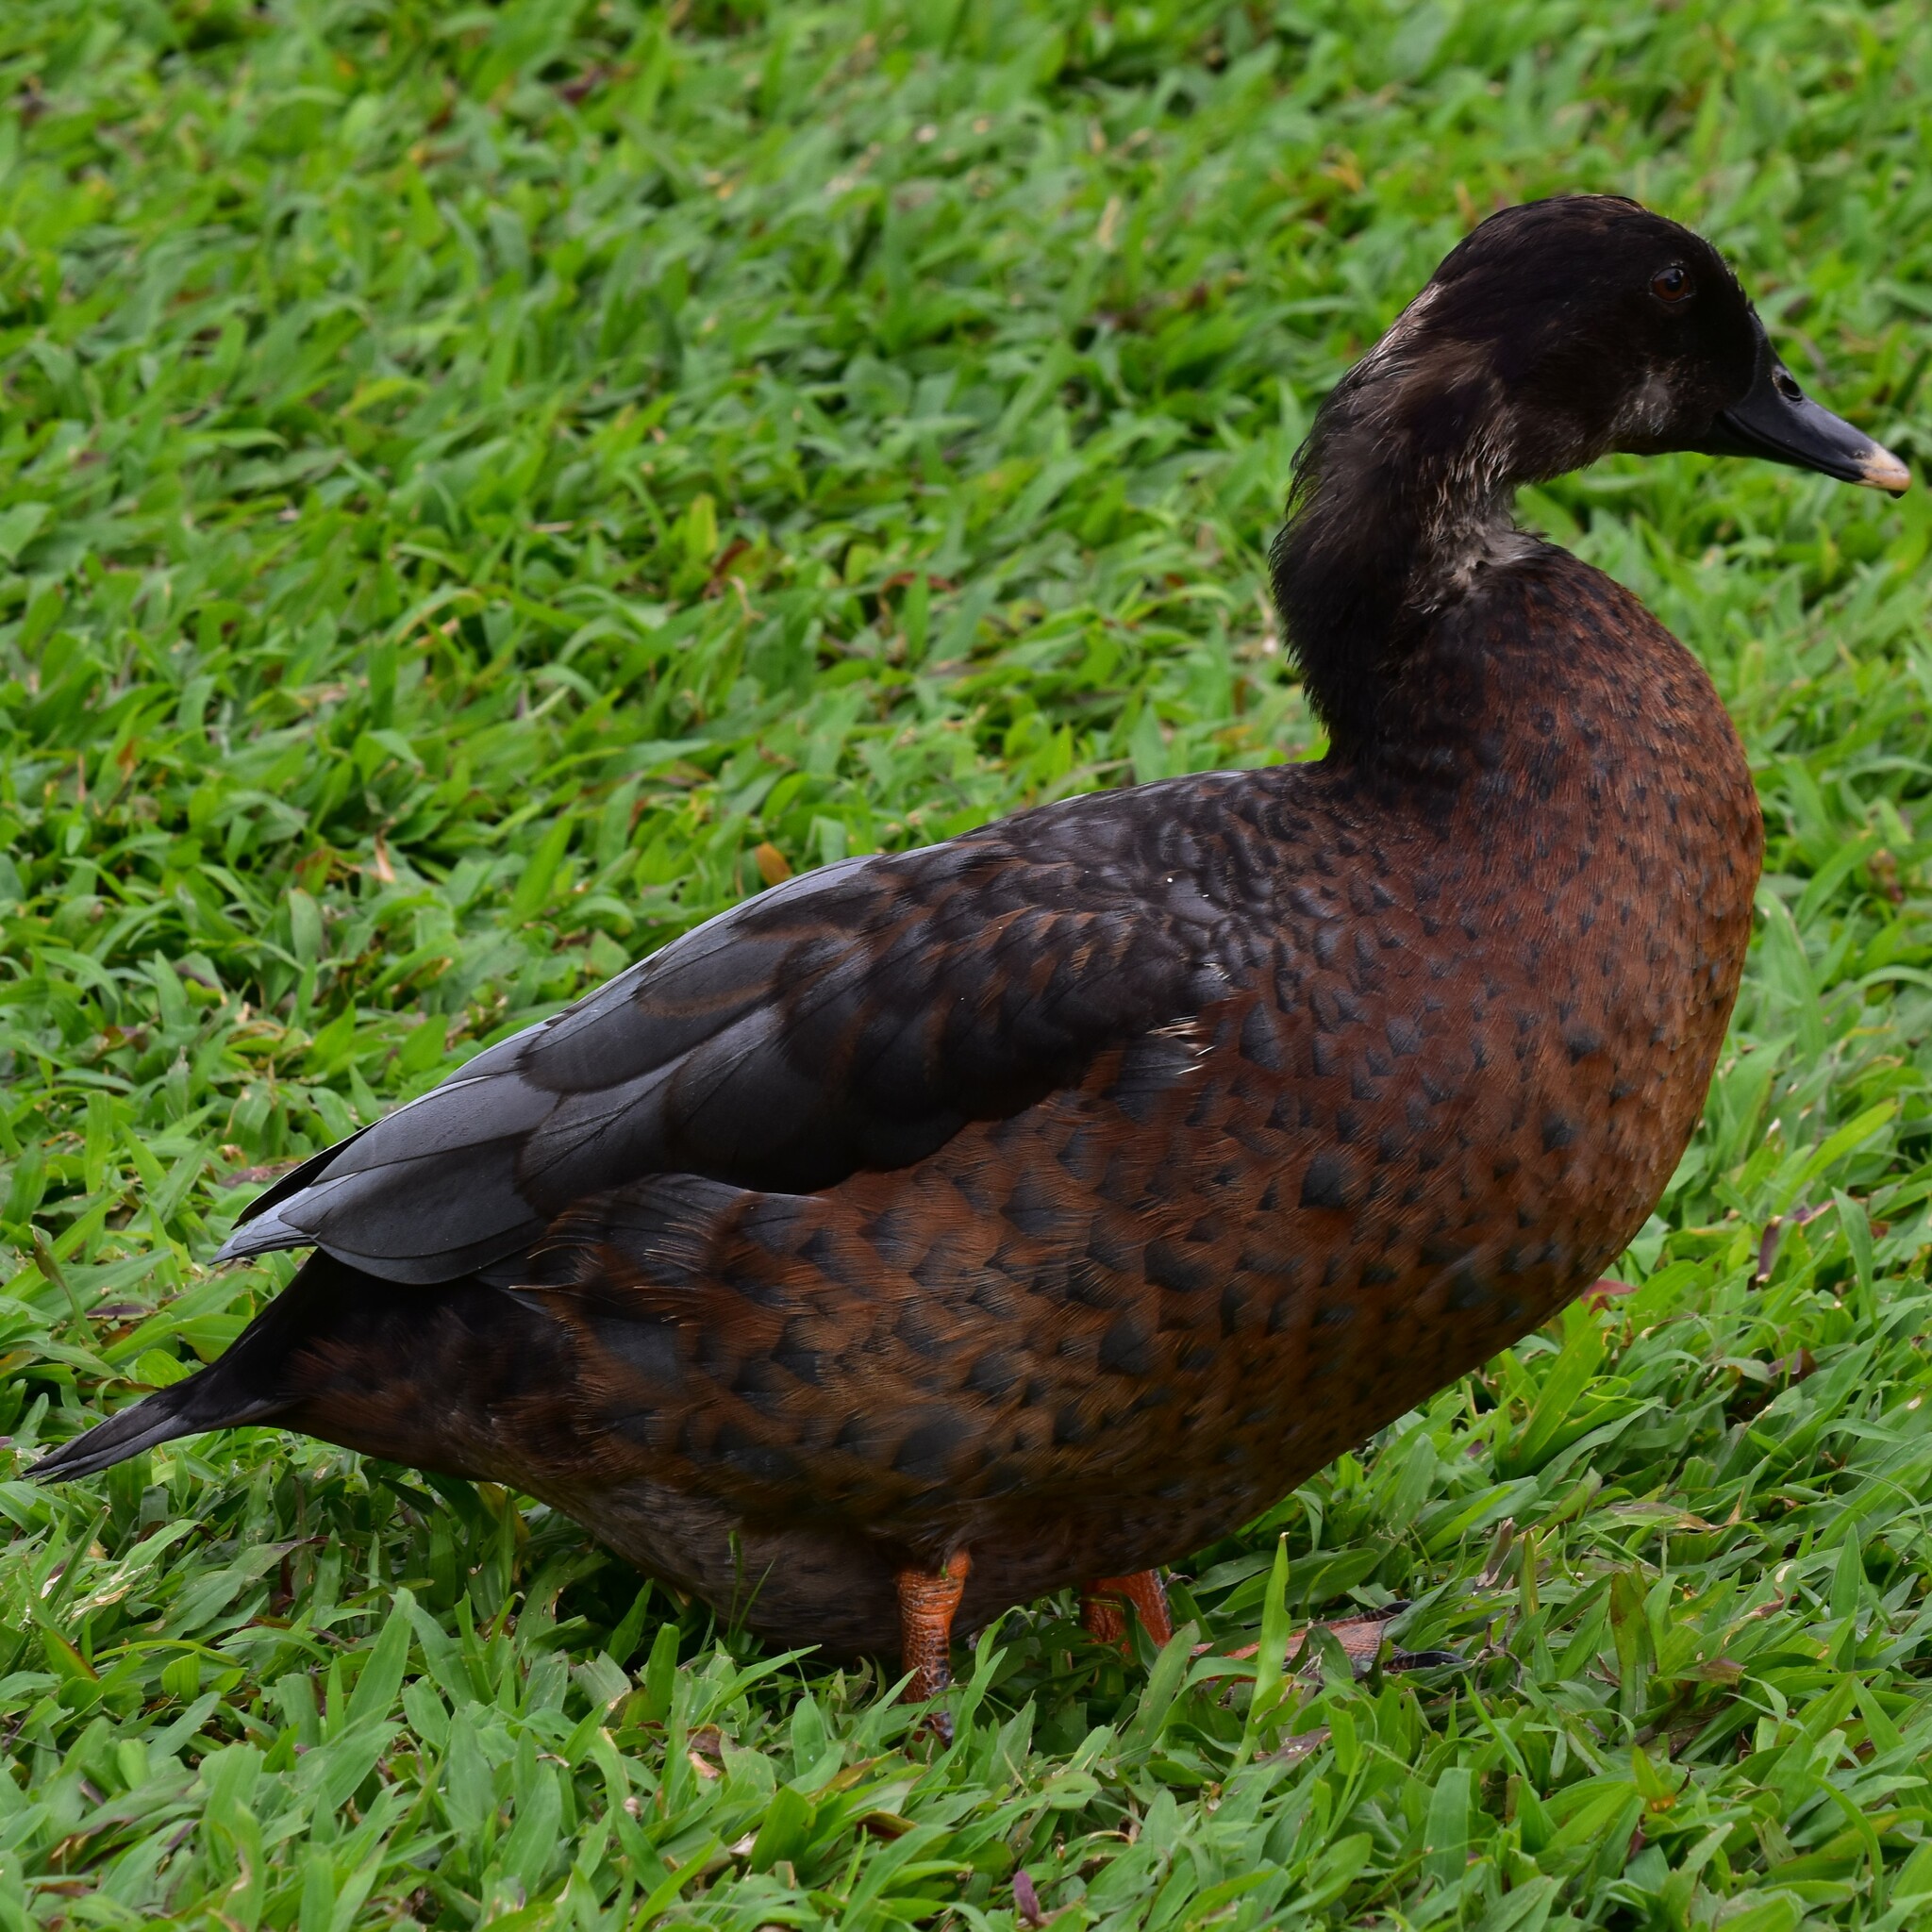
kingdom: Animalia
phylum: Chordata
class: Aves
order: Anseriformes
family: Anatidae
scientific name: Anatidae
